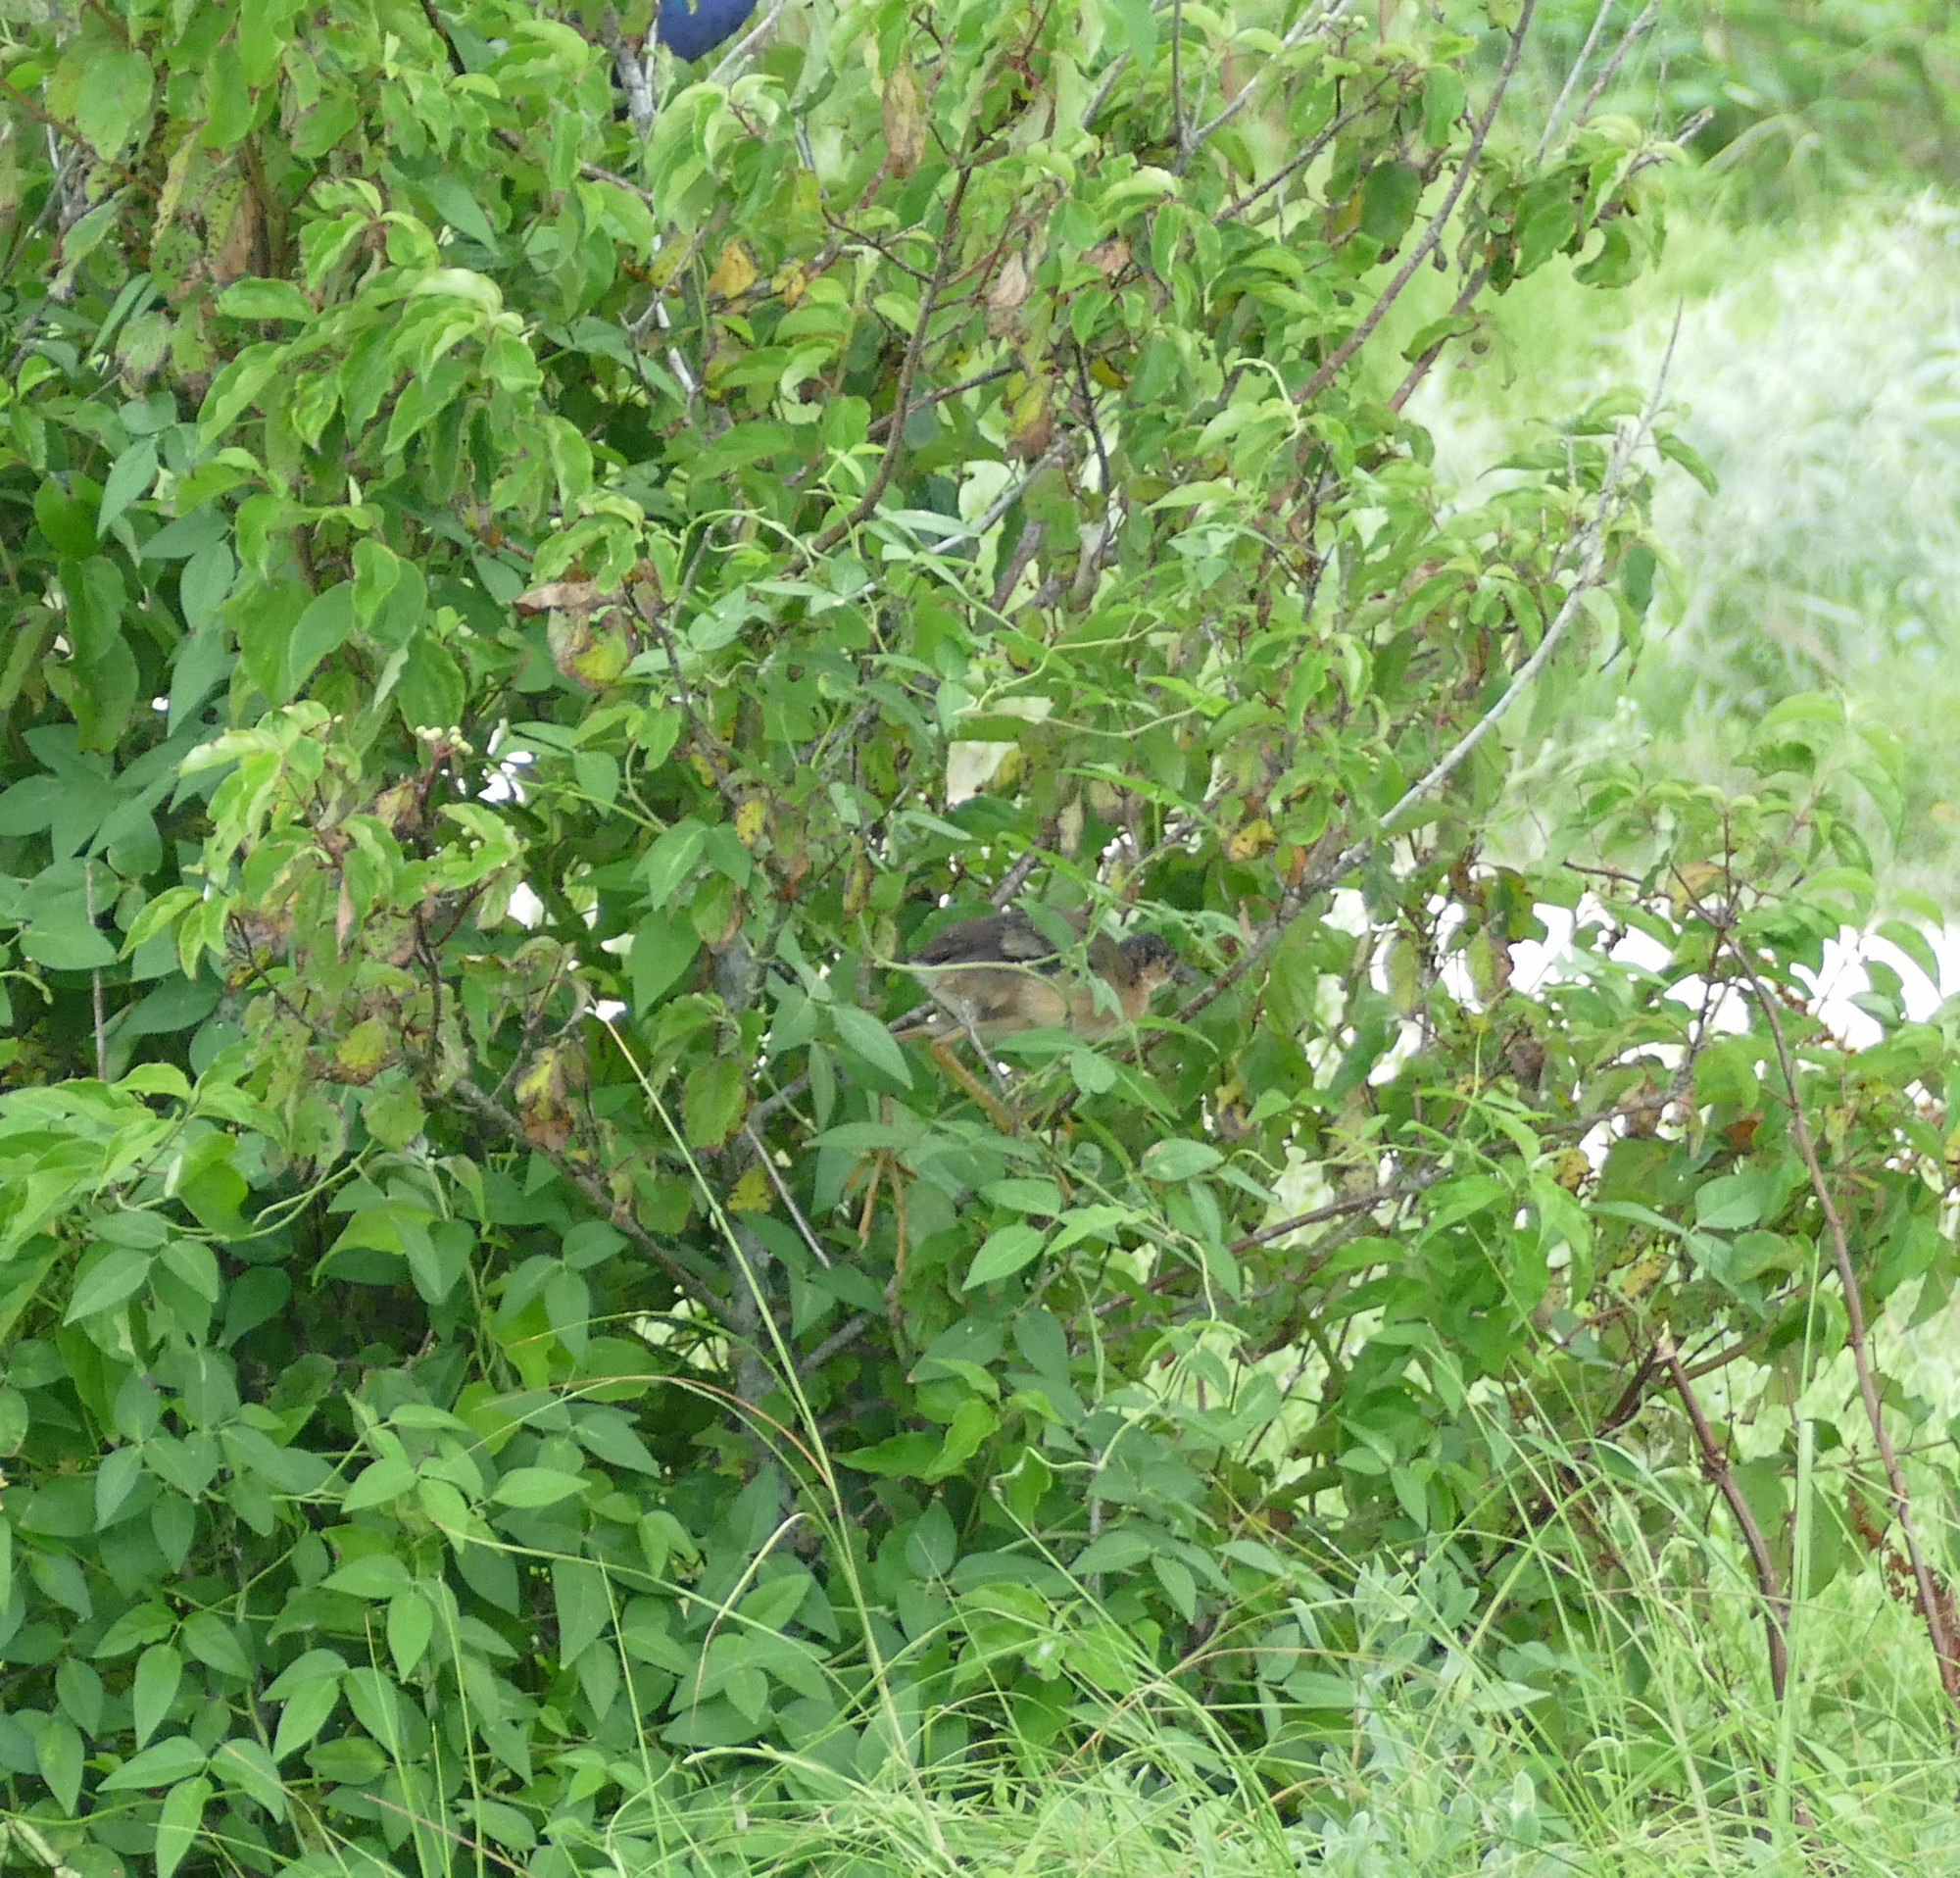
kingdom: Animalia
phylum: Chordata
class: Aves
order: Gruiformes
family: Rallidae
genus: Porphyrio
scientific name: Porphyrio martinica
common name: Purple gallinule
